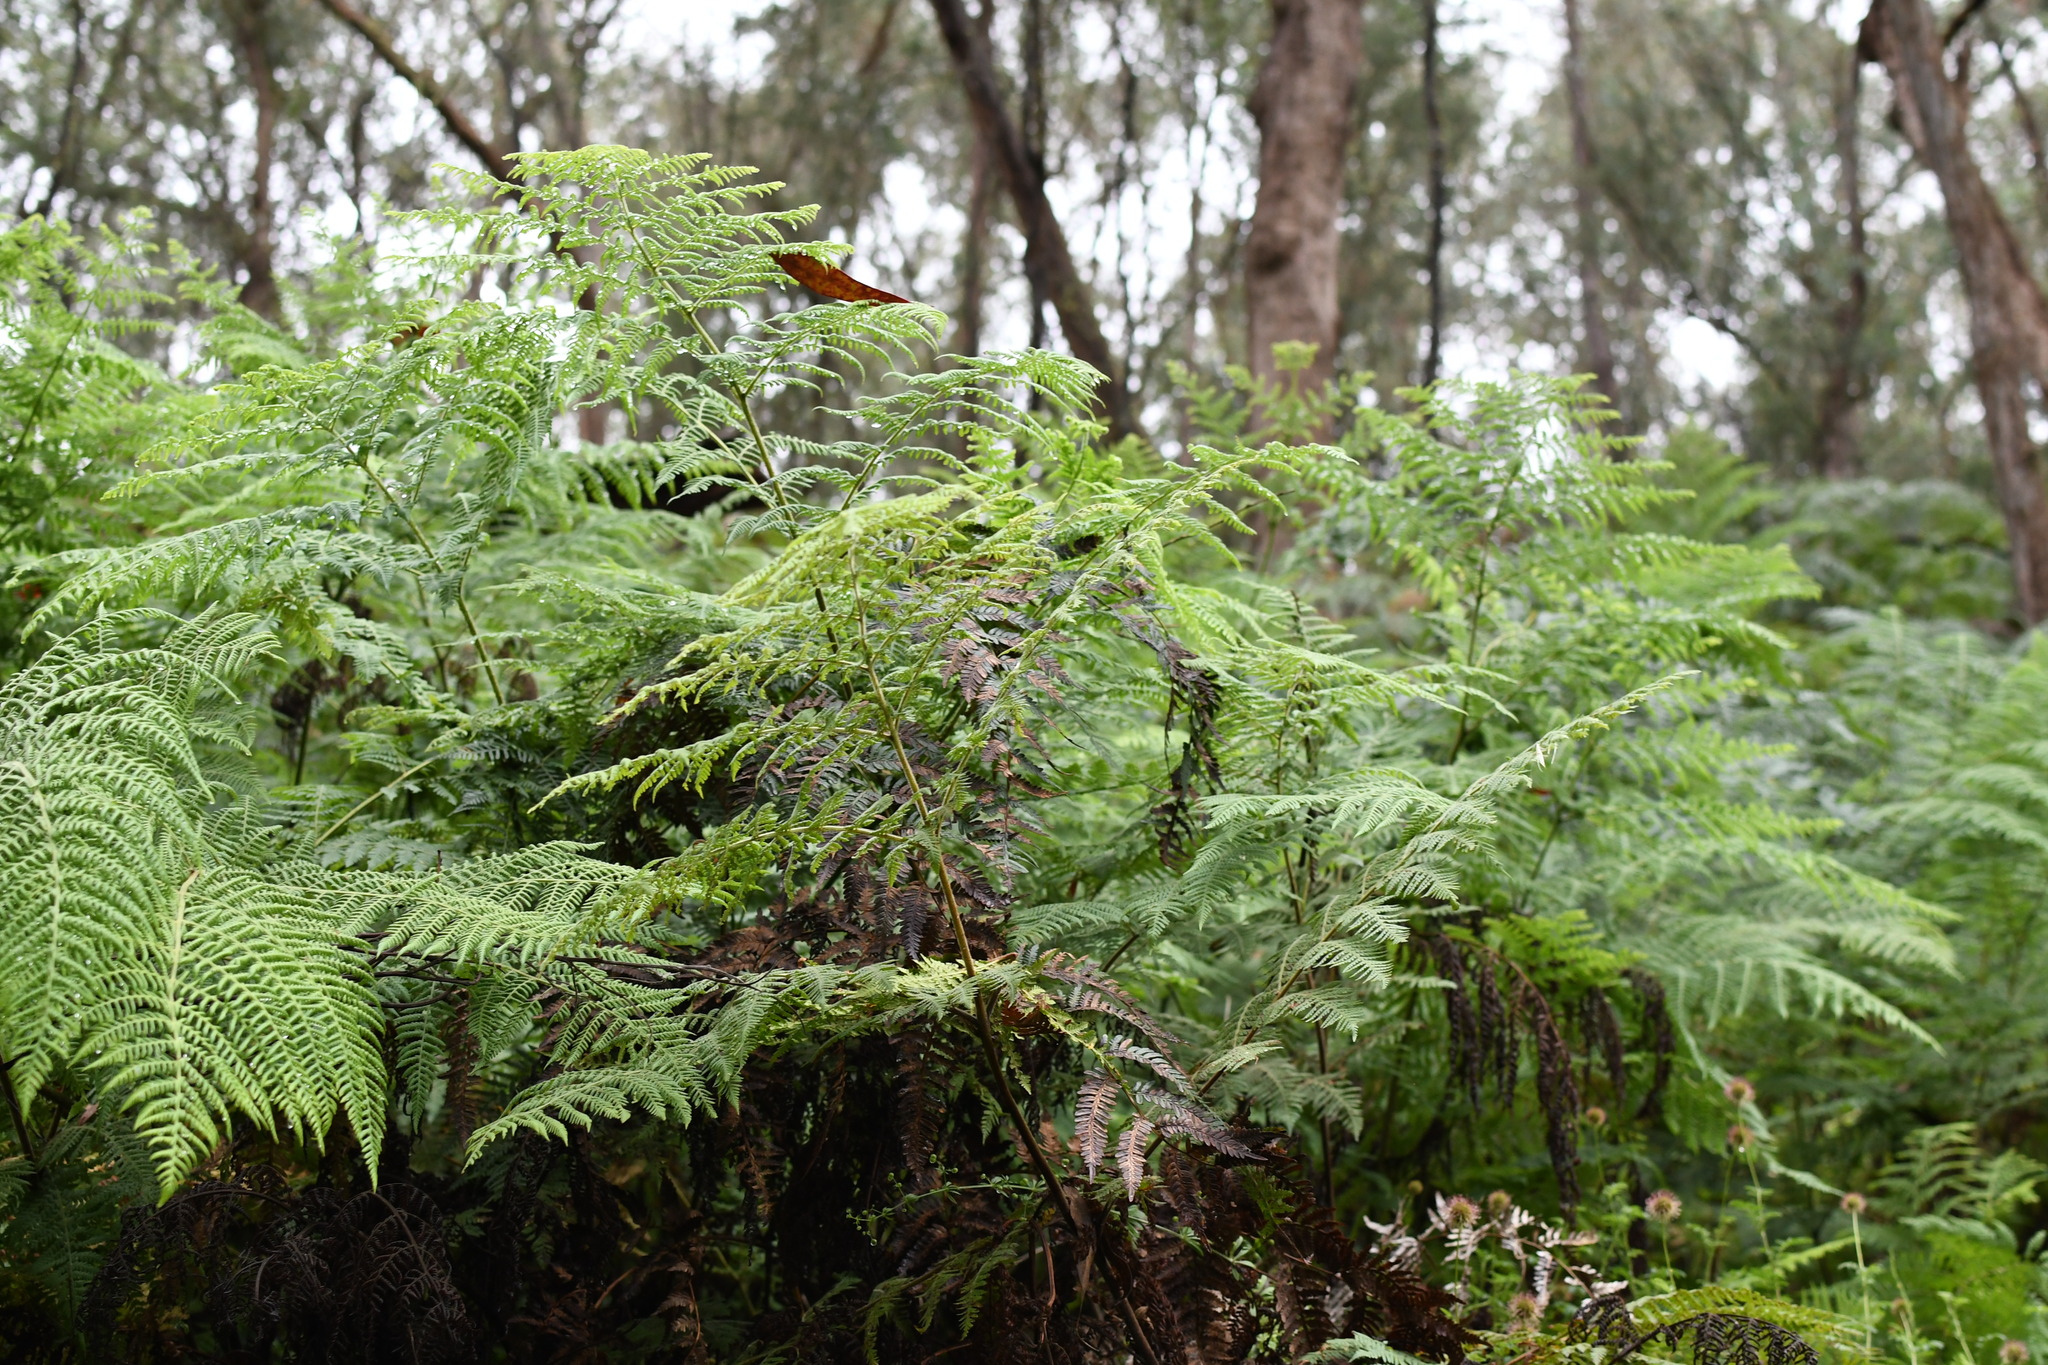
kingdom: Plantae
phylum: Tracheophyta
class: Polypodiopsida
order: Polypodiales
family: Dennstaedtiaceae
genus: Pteridium
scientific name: Pteridium esculentum
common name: Bracken fern
